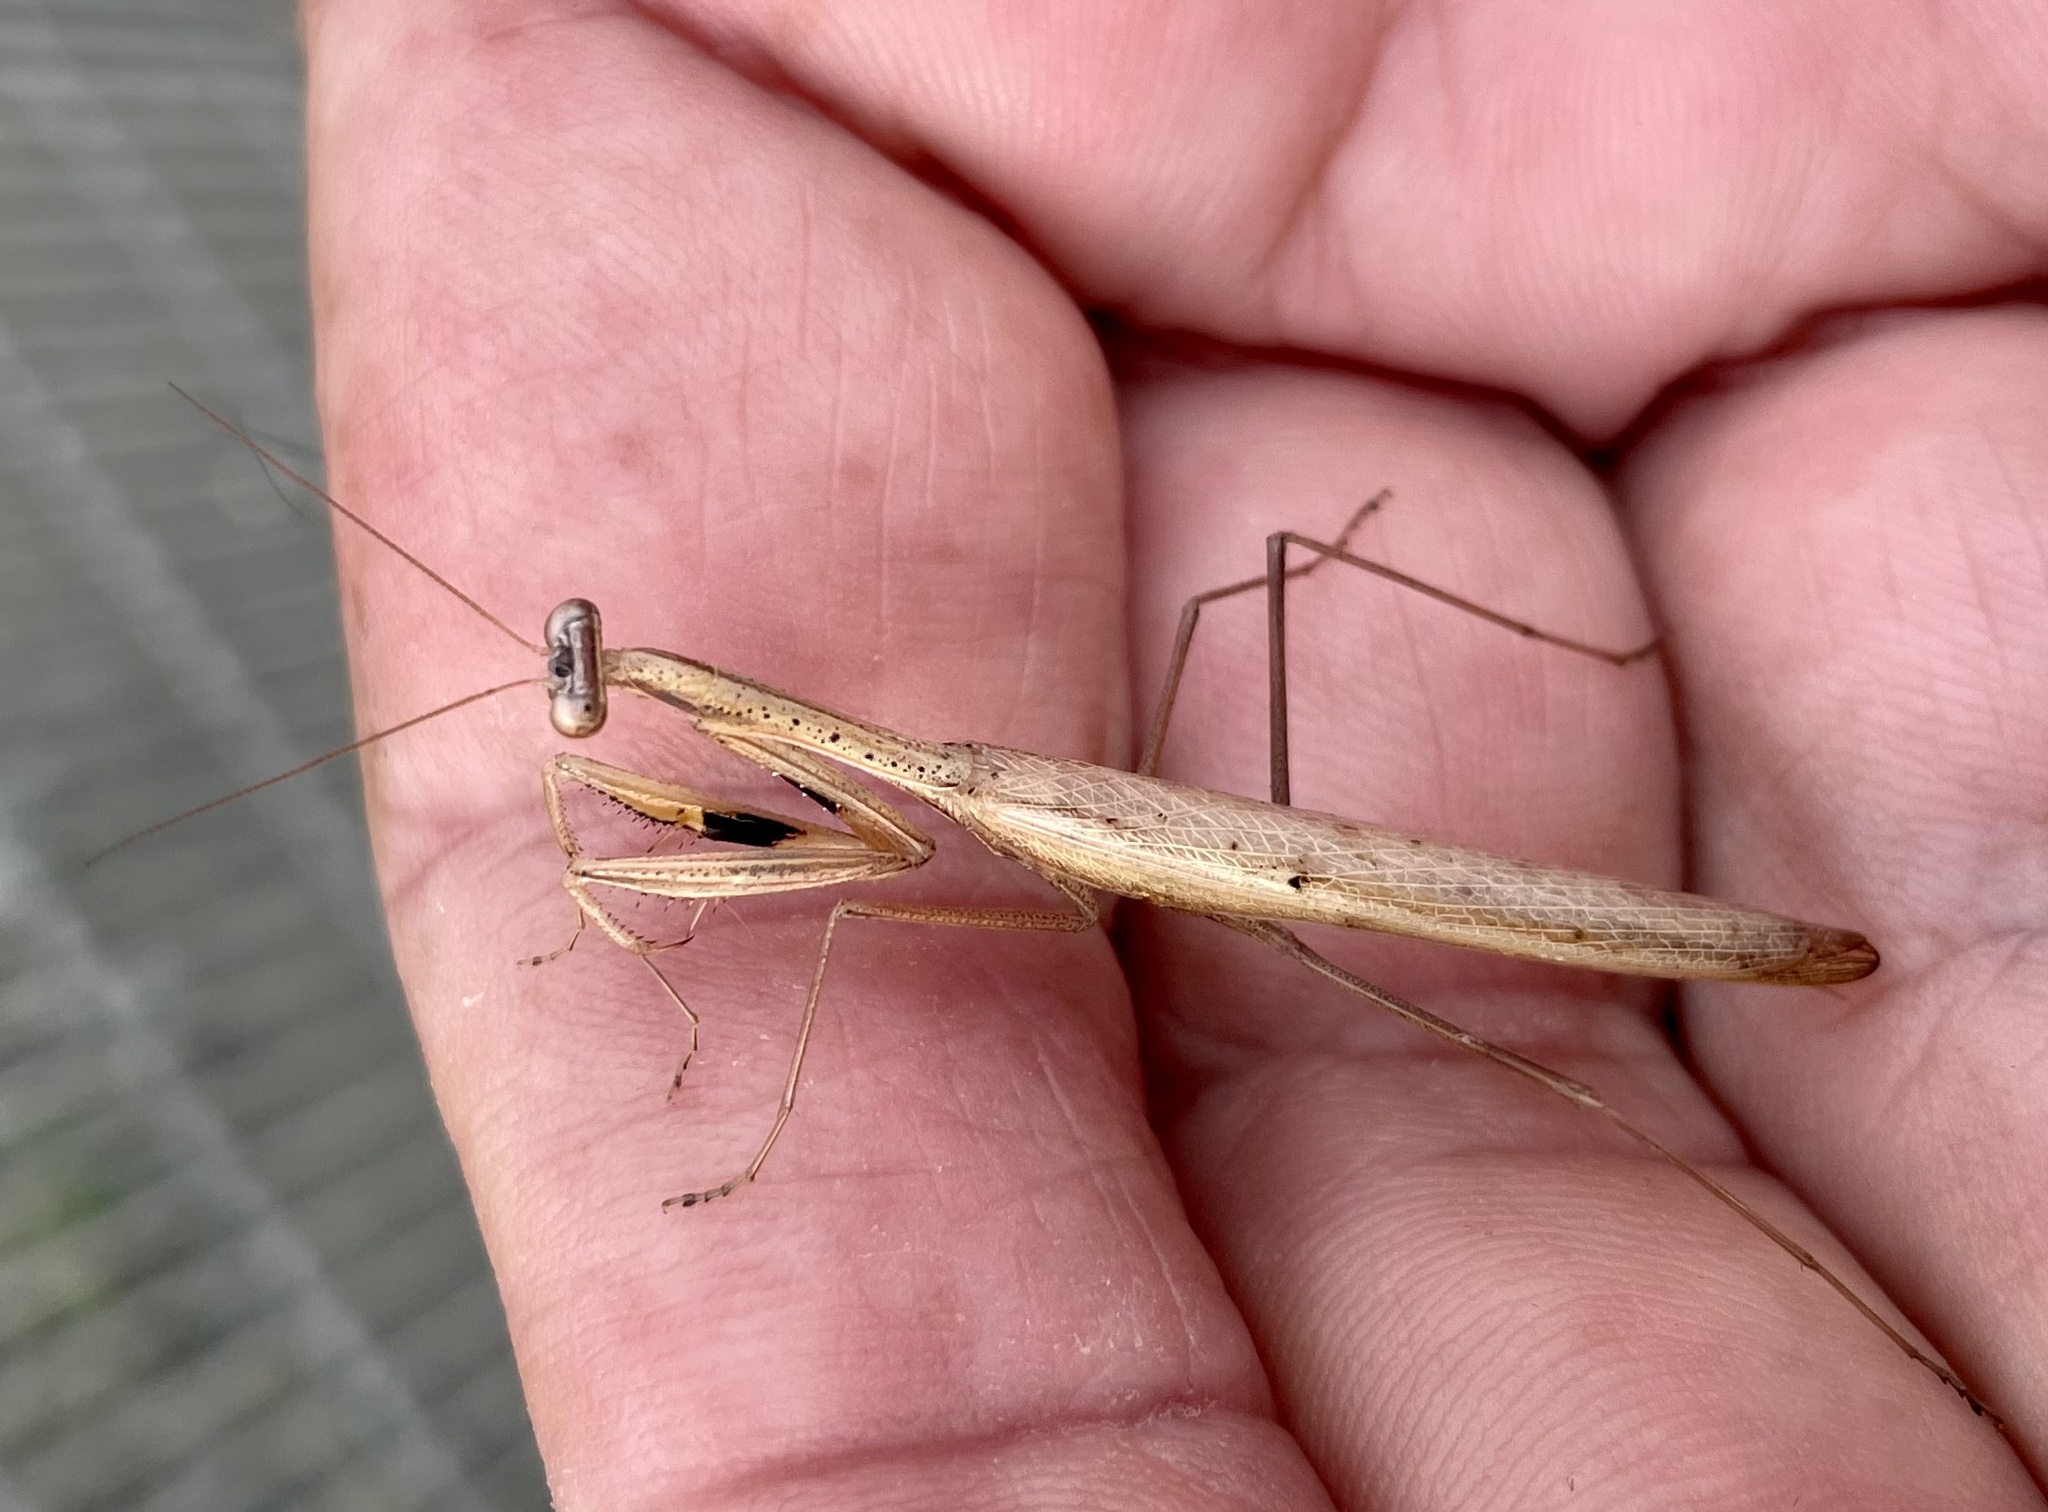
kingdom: Animalia
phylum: Arthropoda
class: Insecta
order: Mantodea
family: Mantidae
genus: Statilia
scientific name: Statilia apicalis
